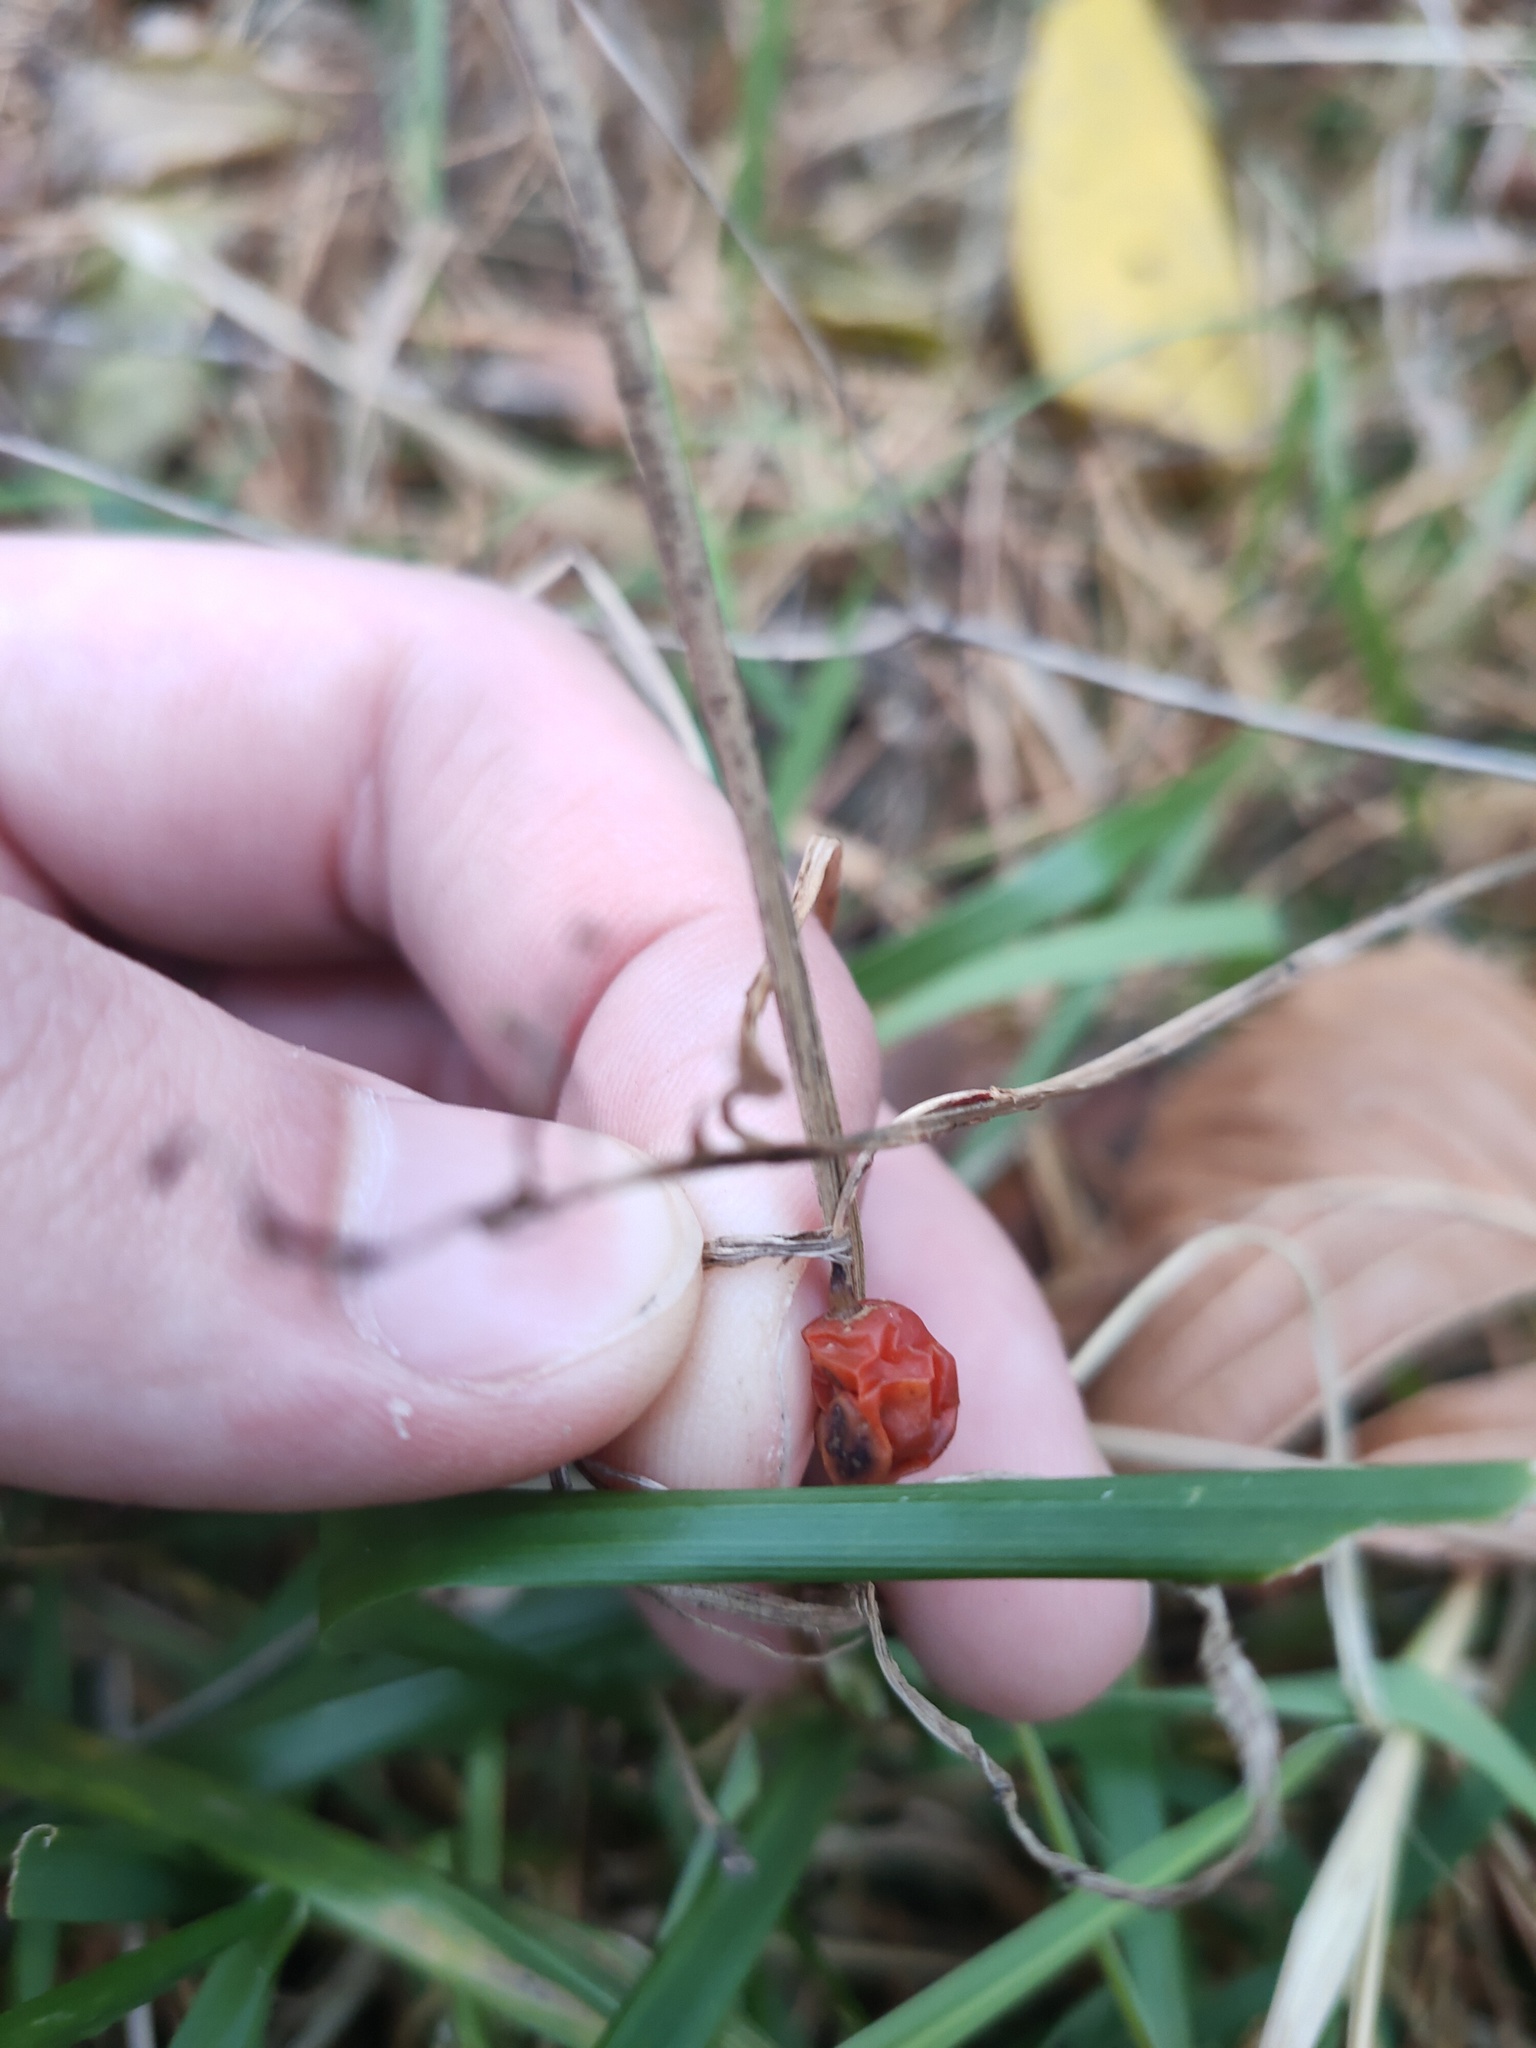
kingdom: Plantae
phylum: Tracheophyta
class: Liliopsida
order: Asparagales
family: Asparagaceae
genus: Convallaria
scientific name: Convallaria majalis
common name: Lily-of-the-valley
